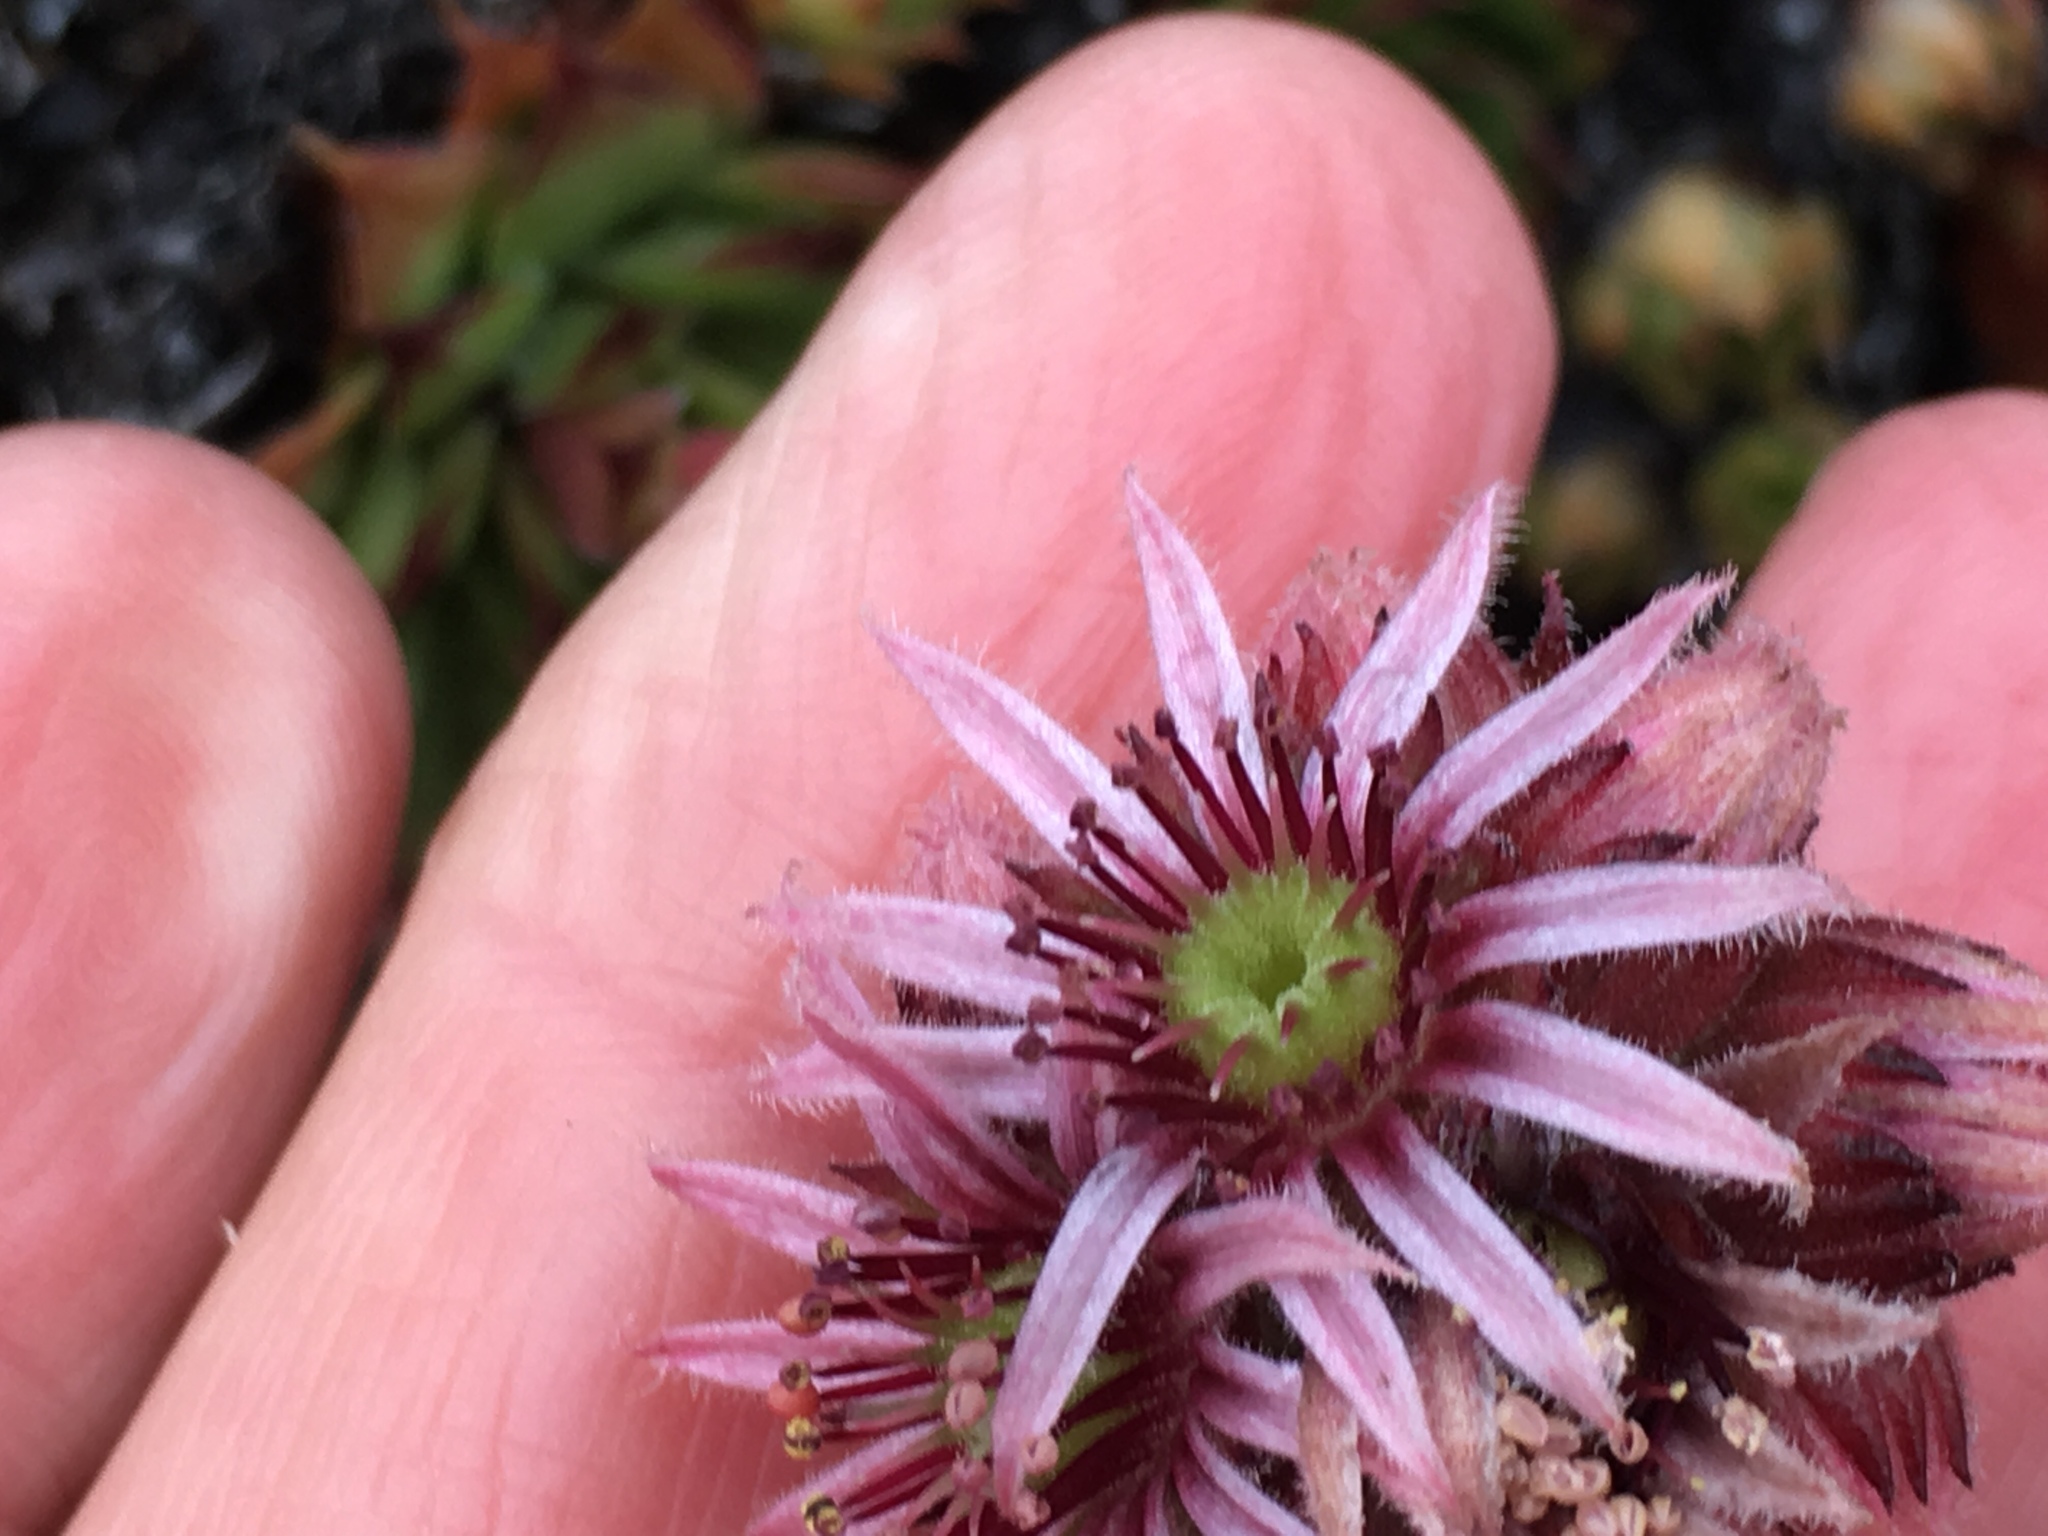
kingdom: Plantae
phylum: Tracheophyta
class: Magnoliopsida
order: Saxifragales
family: Crassulaceae
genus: Sempervivum
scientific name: Sempervivum tectorum
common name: House-leek
